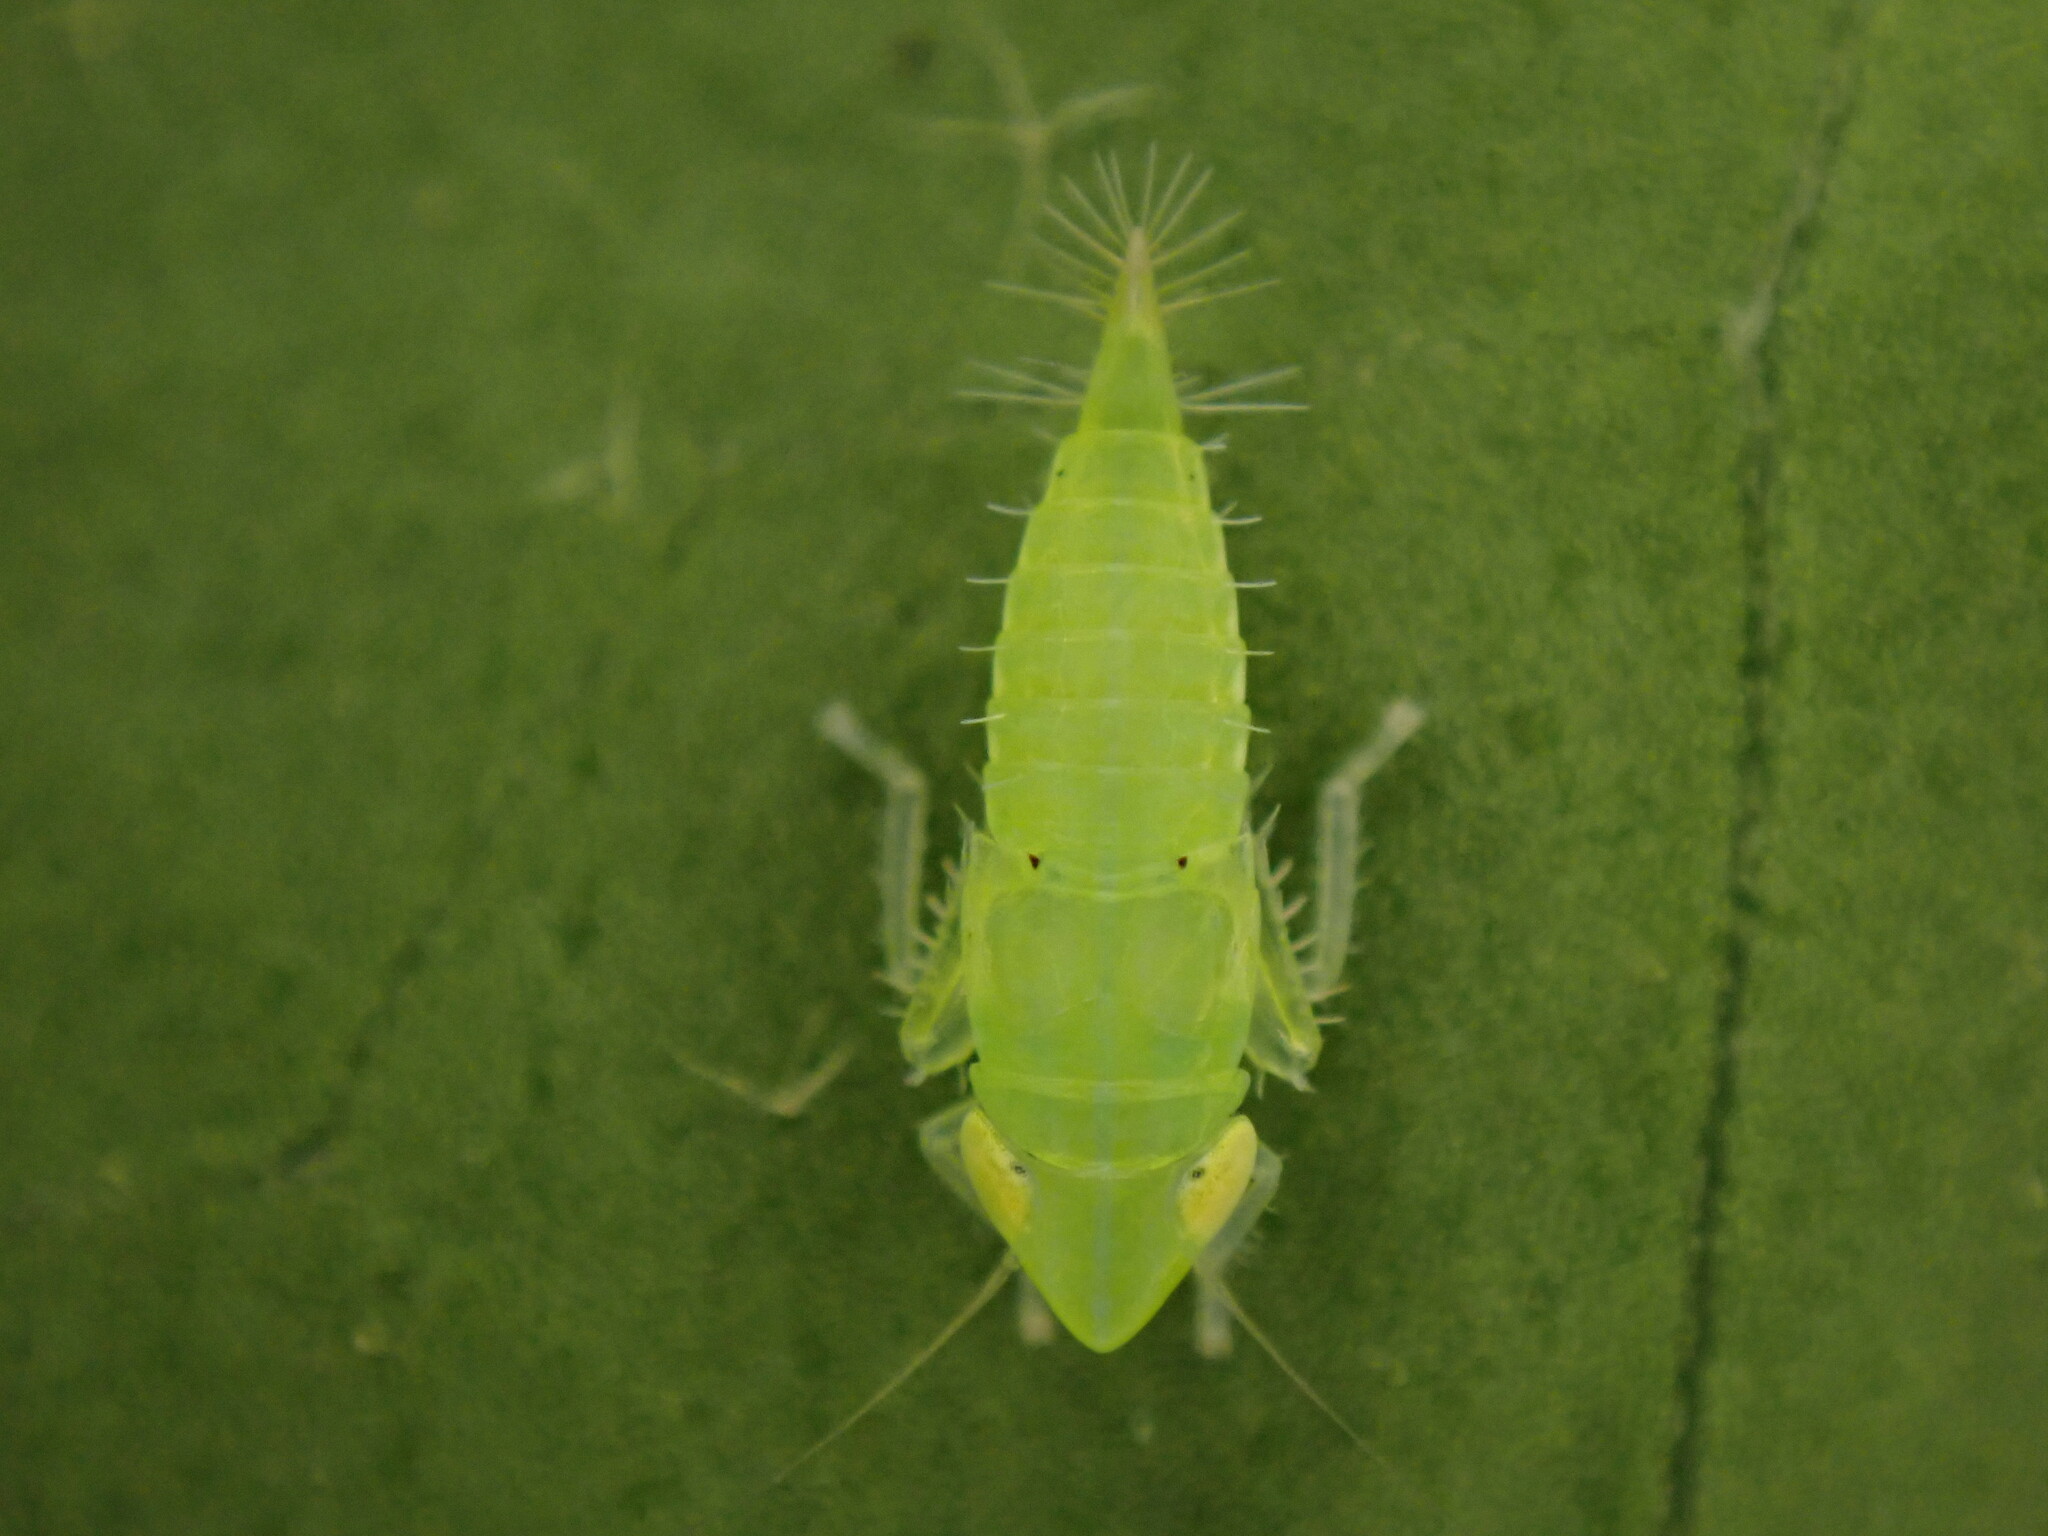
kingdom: Animalia
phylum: Arthropoda
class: Insecta
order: Hemiptera
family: Cicadellidae
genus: Synophropsis
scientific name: Synophropsis lauri
